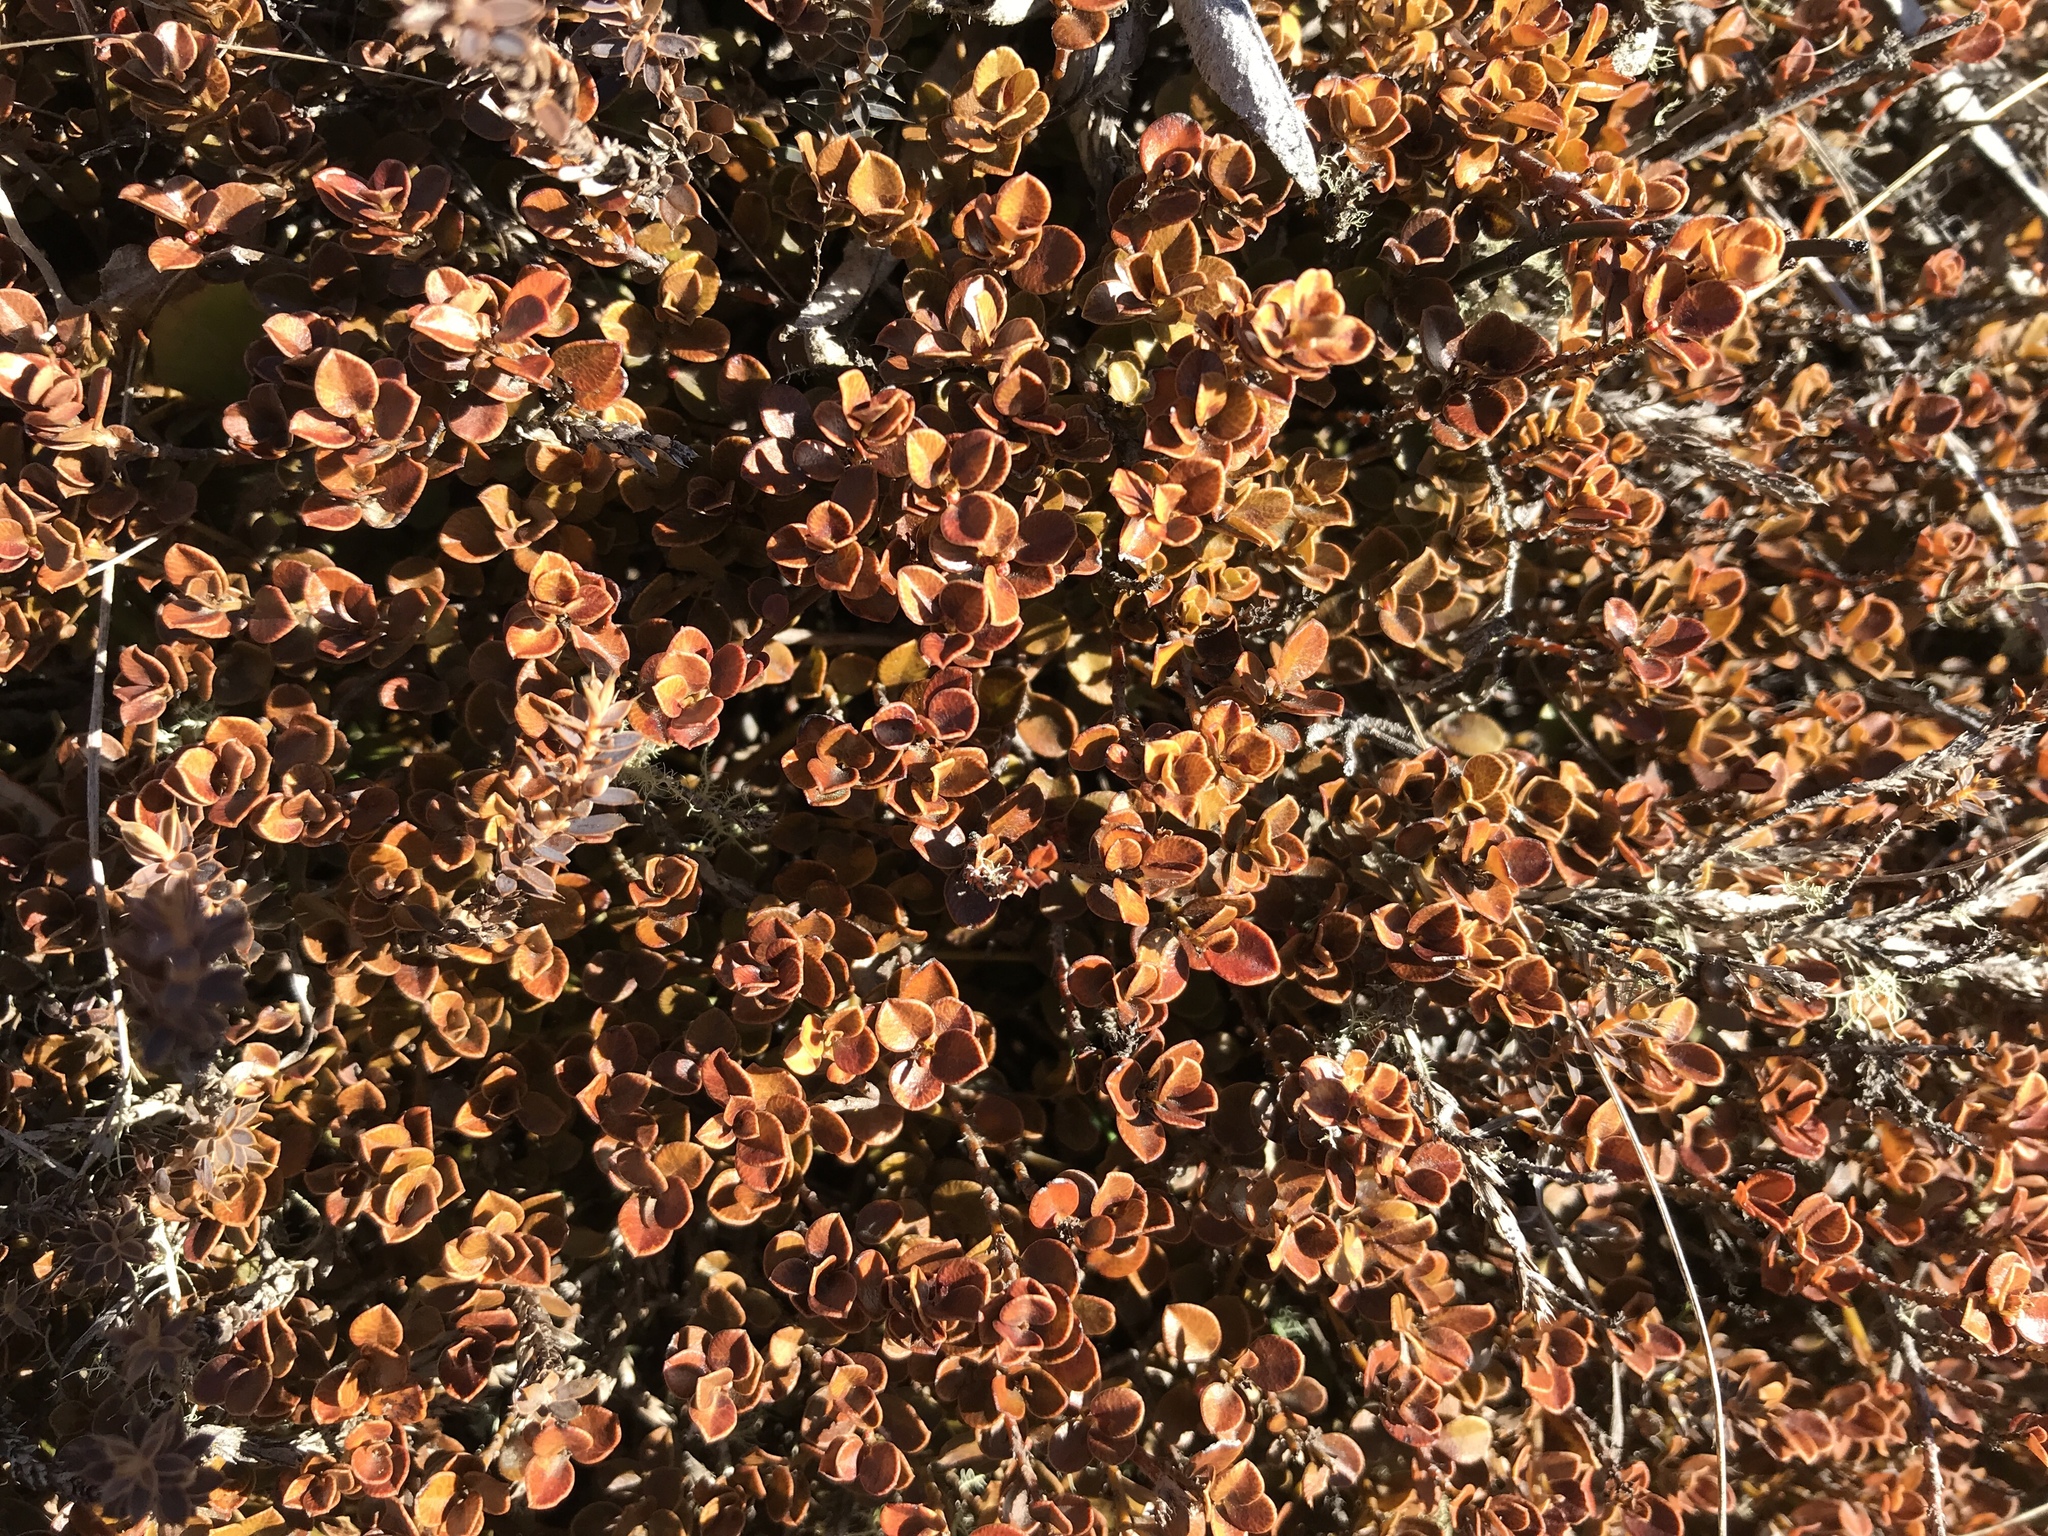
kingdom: Plantae
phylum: Tracheophyta
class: Magnoliopsida
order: Ericales
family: Primulaceae
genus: Myrsine
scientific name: Myrsine nummularia
